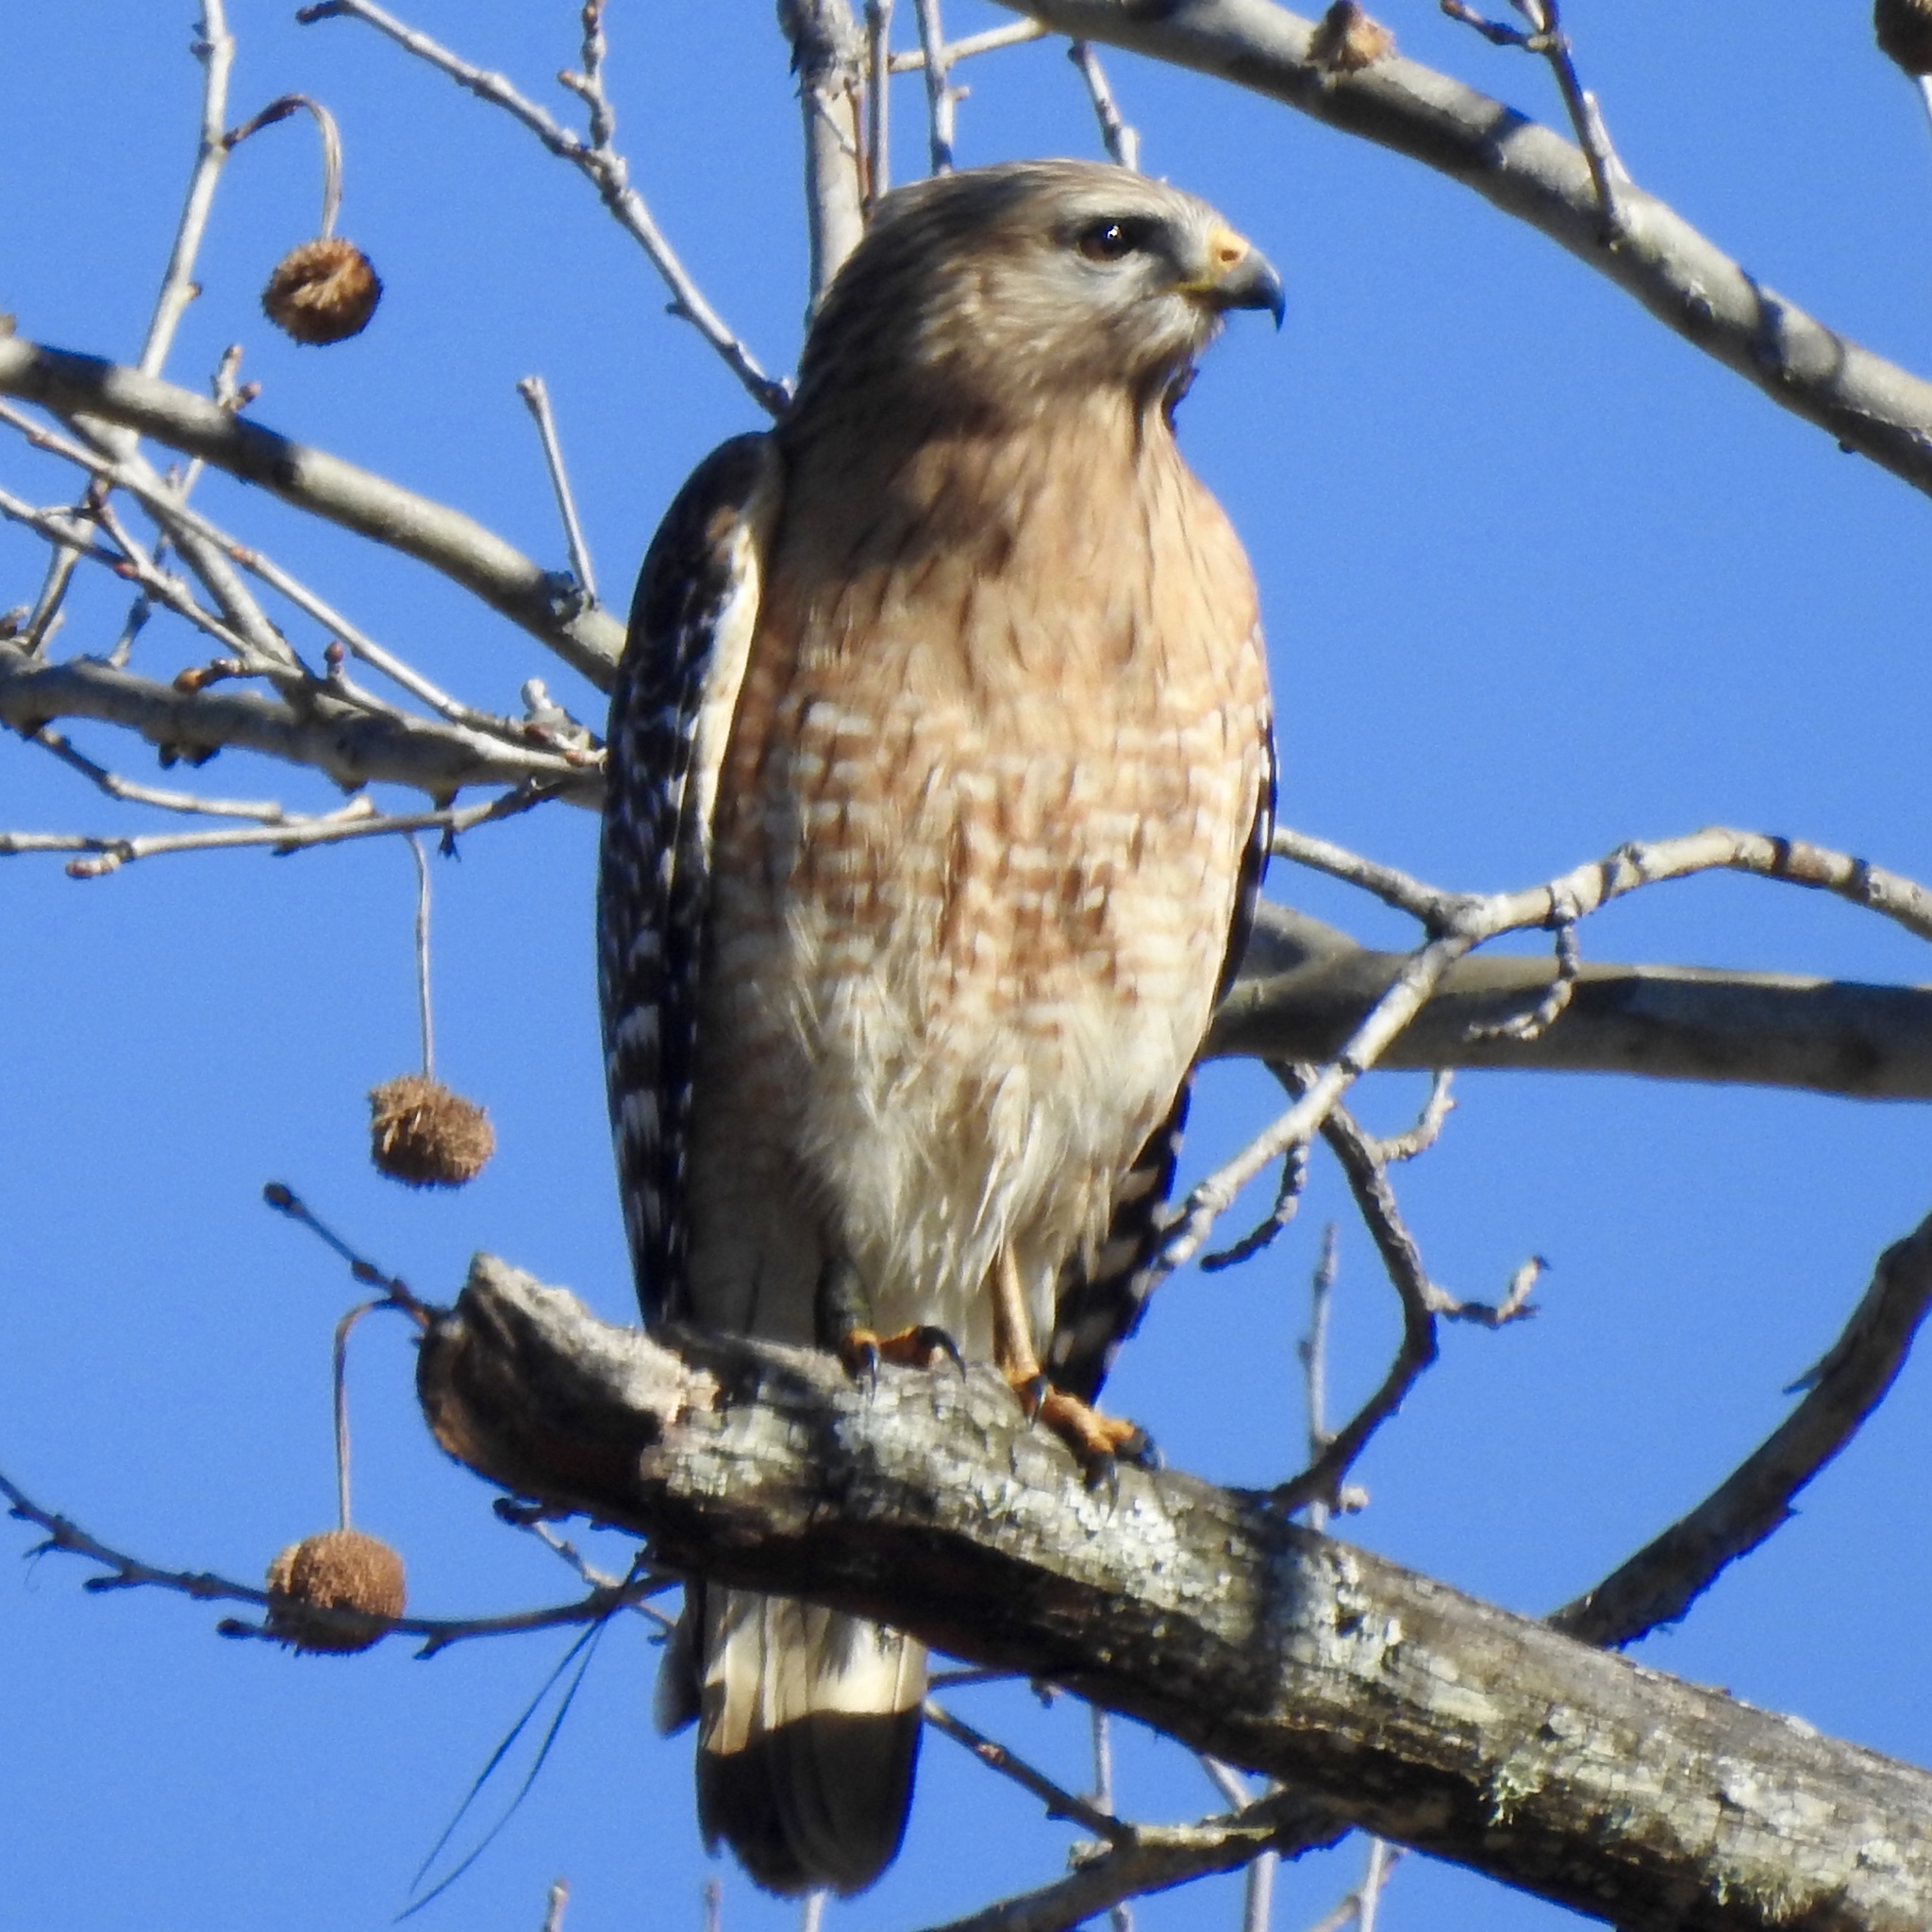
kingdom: Animalia
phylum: Chordata
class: Aves
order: Accipitriformes
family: Accipitridae
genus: Buteo
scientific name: Buteo lineatus
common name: Red-shouldered hawk
